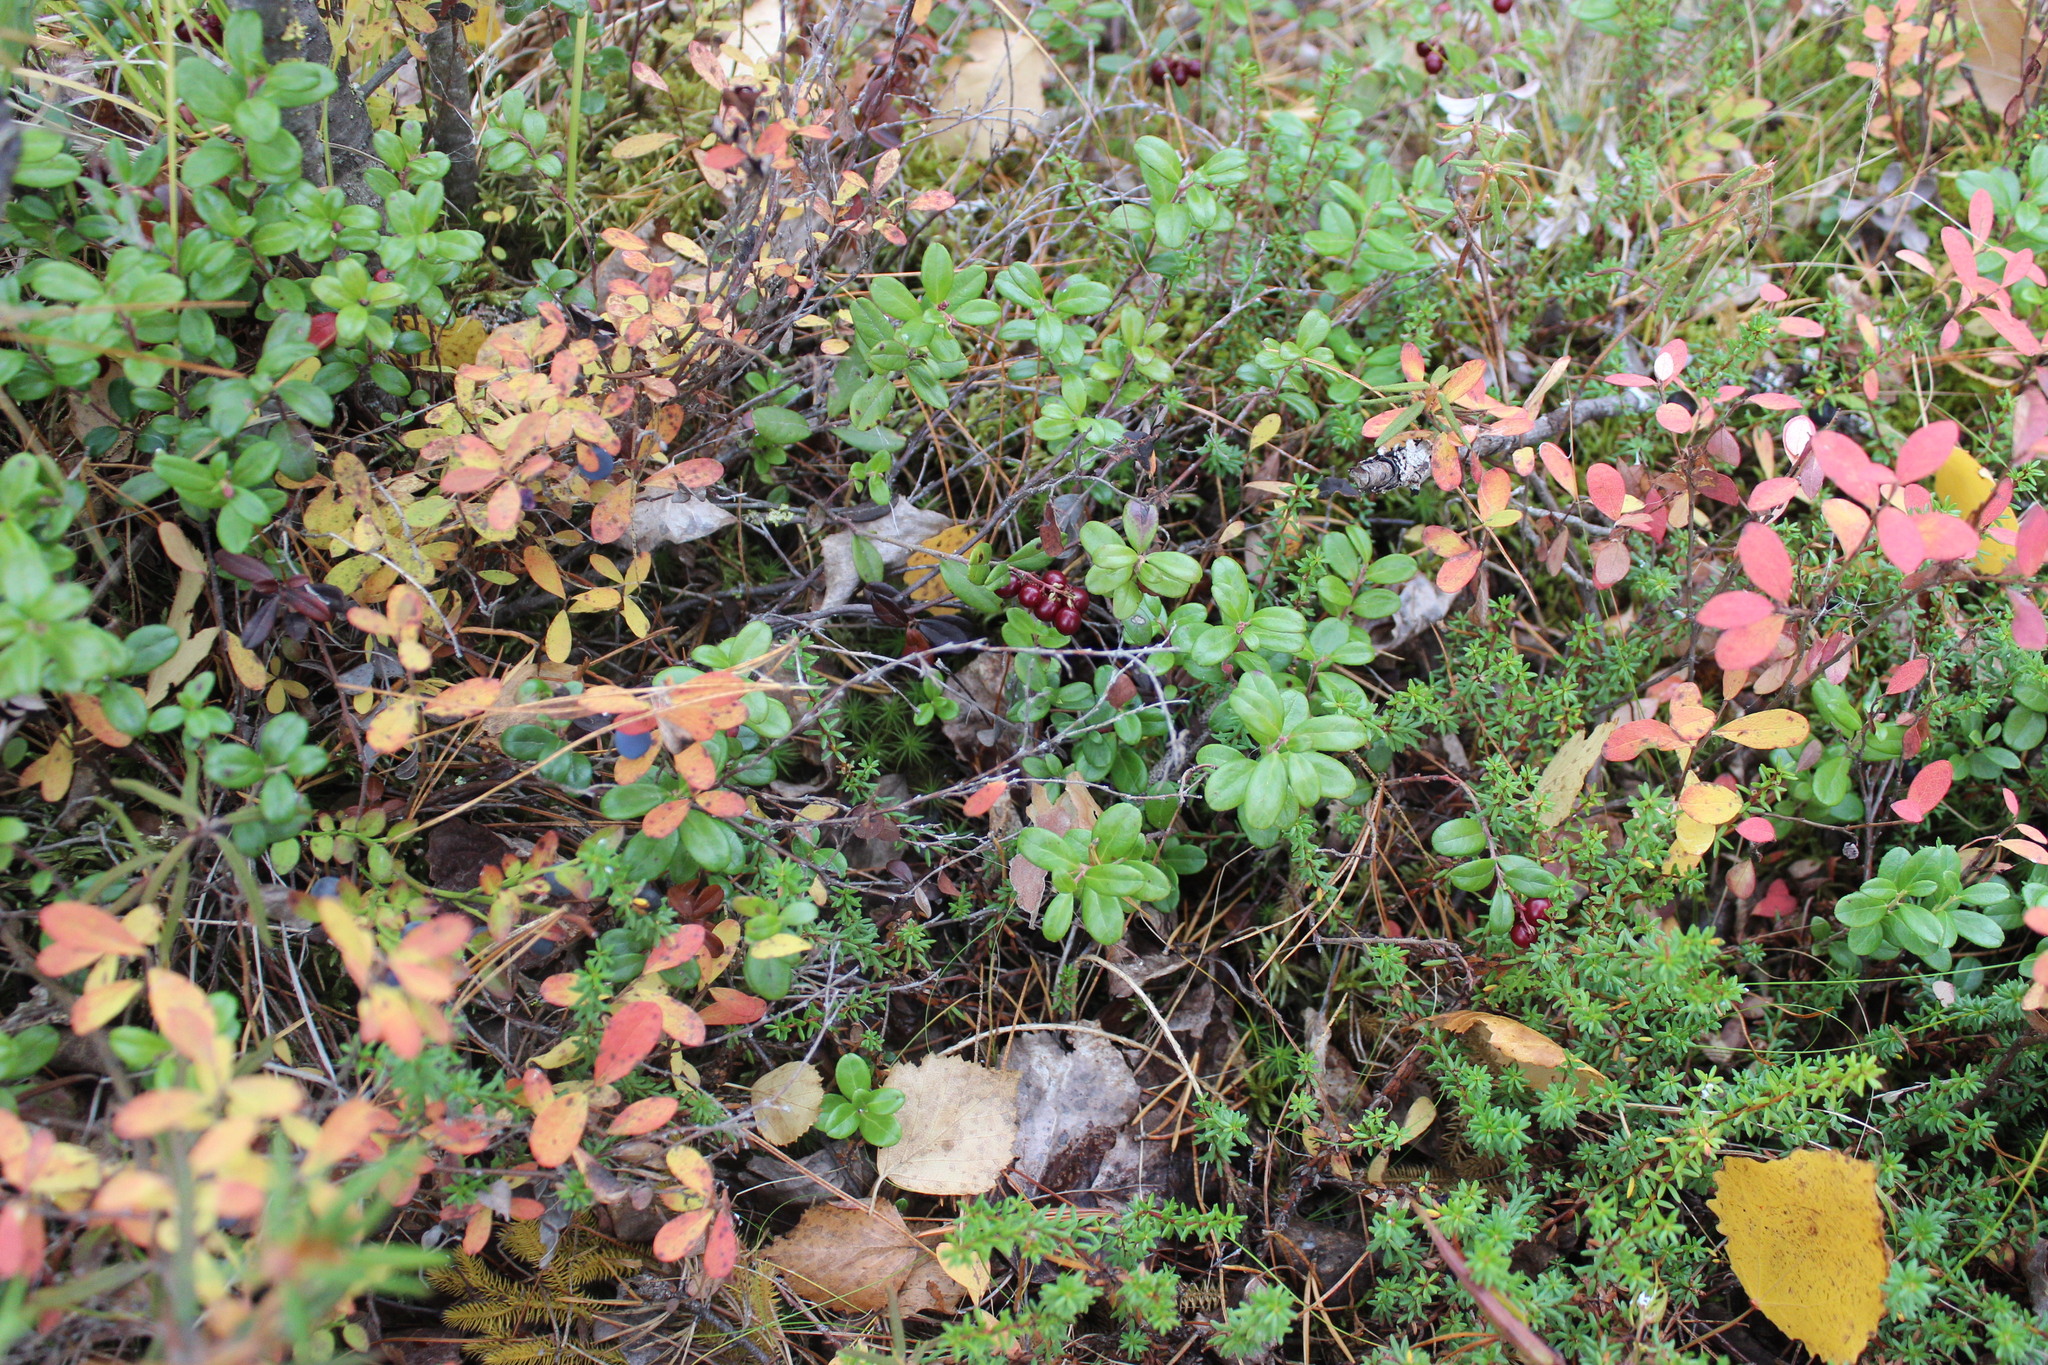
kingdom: Plantae
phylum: Tracheophyta
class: Magnoliopsida
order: Ericales
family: Ericaceae
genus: Vaccinium
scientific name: Vaccinium vitis-idaea
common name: Cowberry
